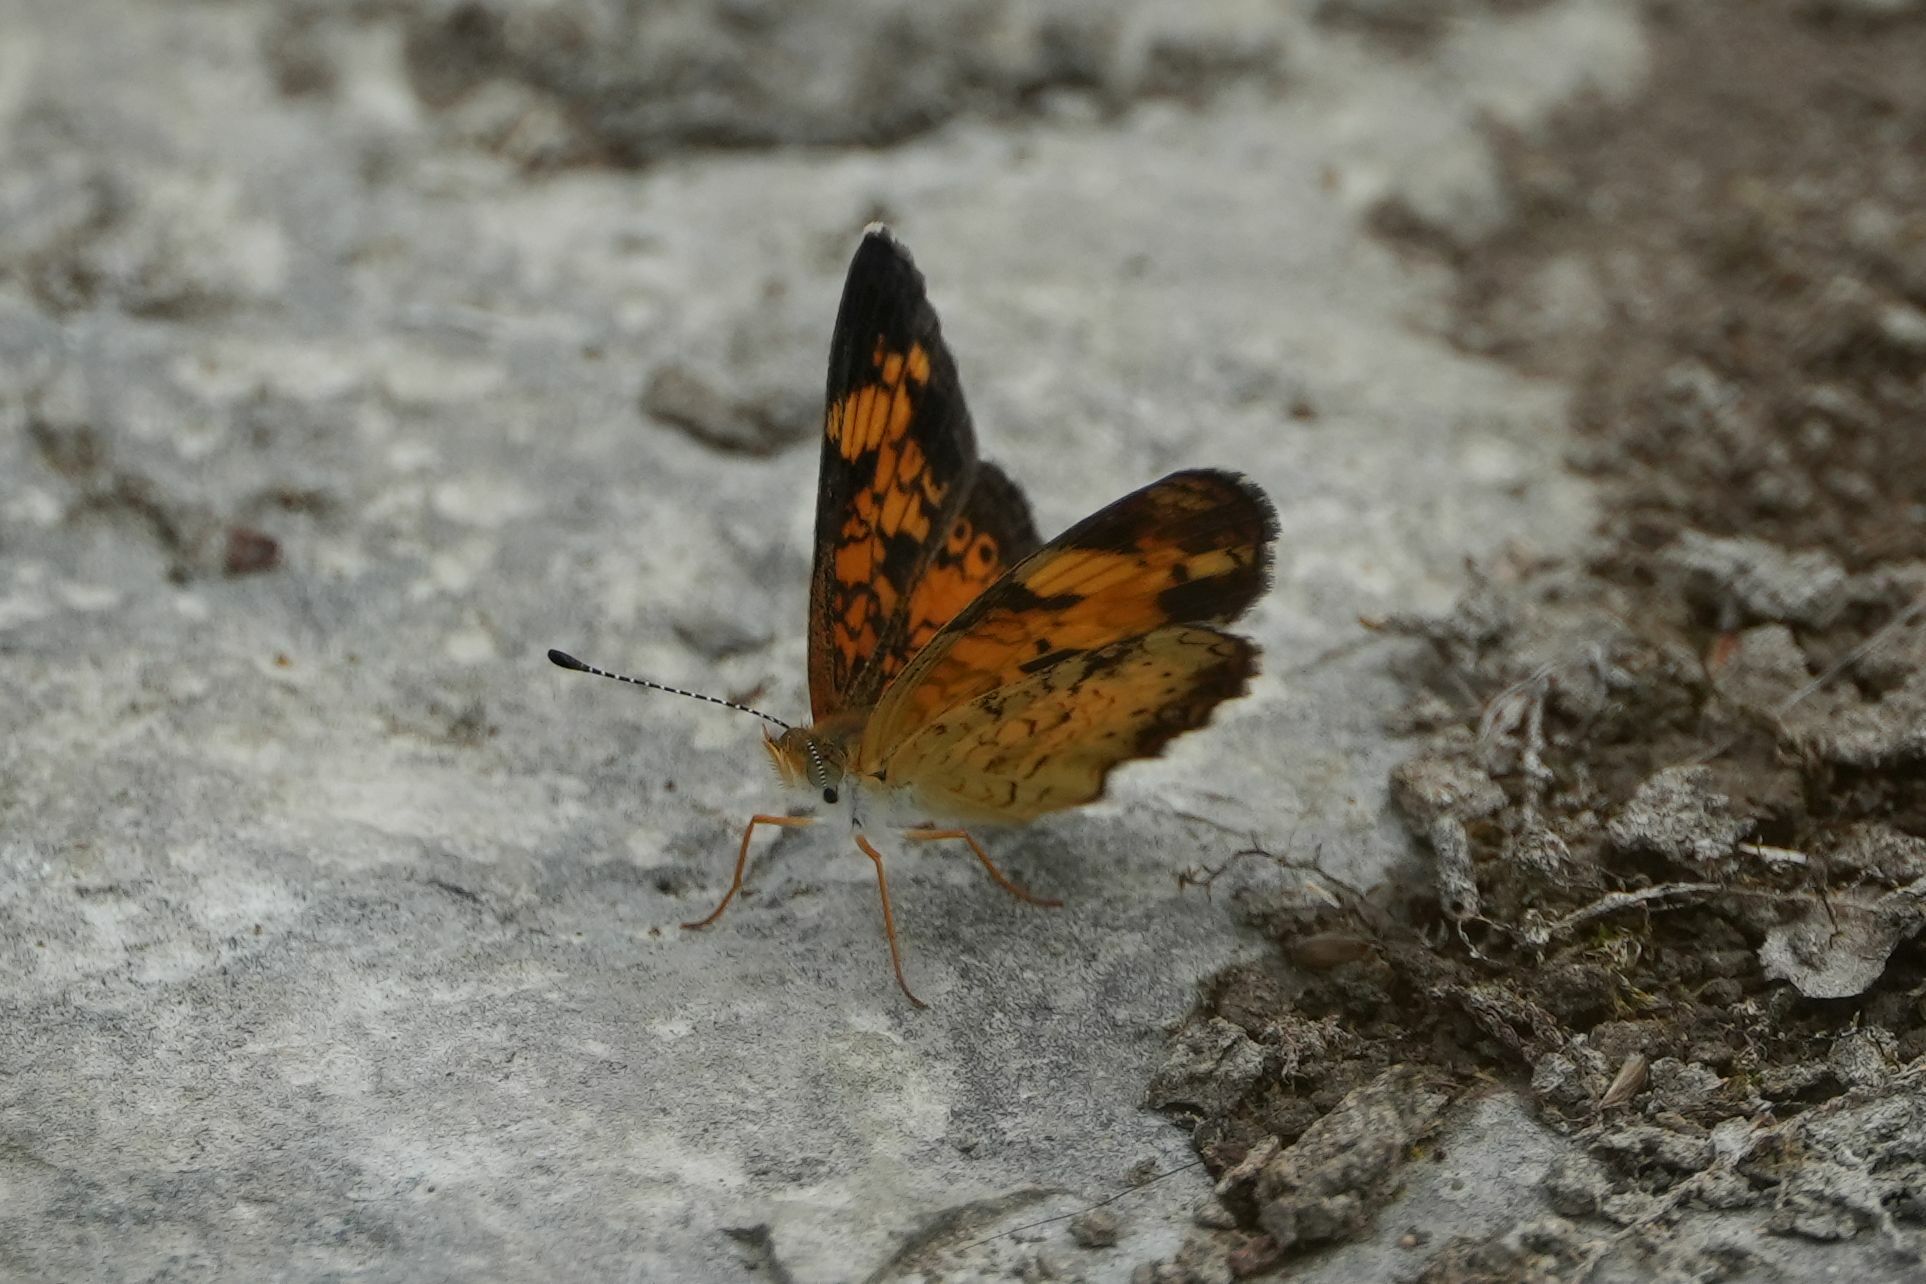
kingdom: Animalia
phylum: Arthropoda
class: Insecta
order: Lepidoptera
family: Nymphalidae
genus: Phyciodes
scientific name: Phyciodes tharos
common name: Pearl crescent
